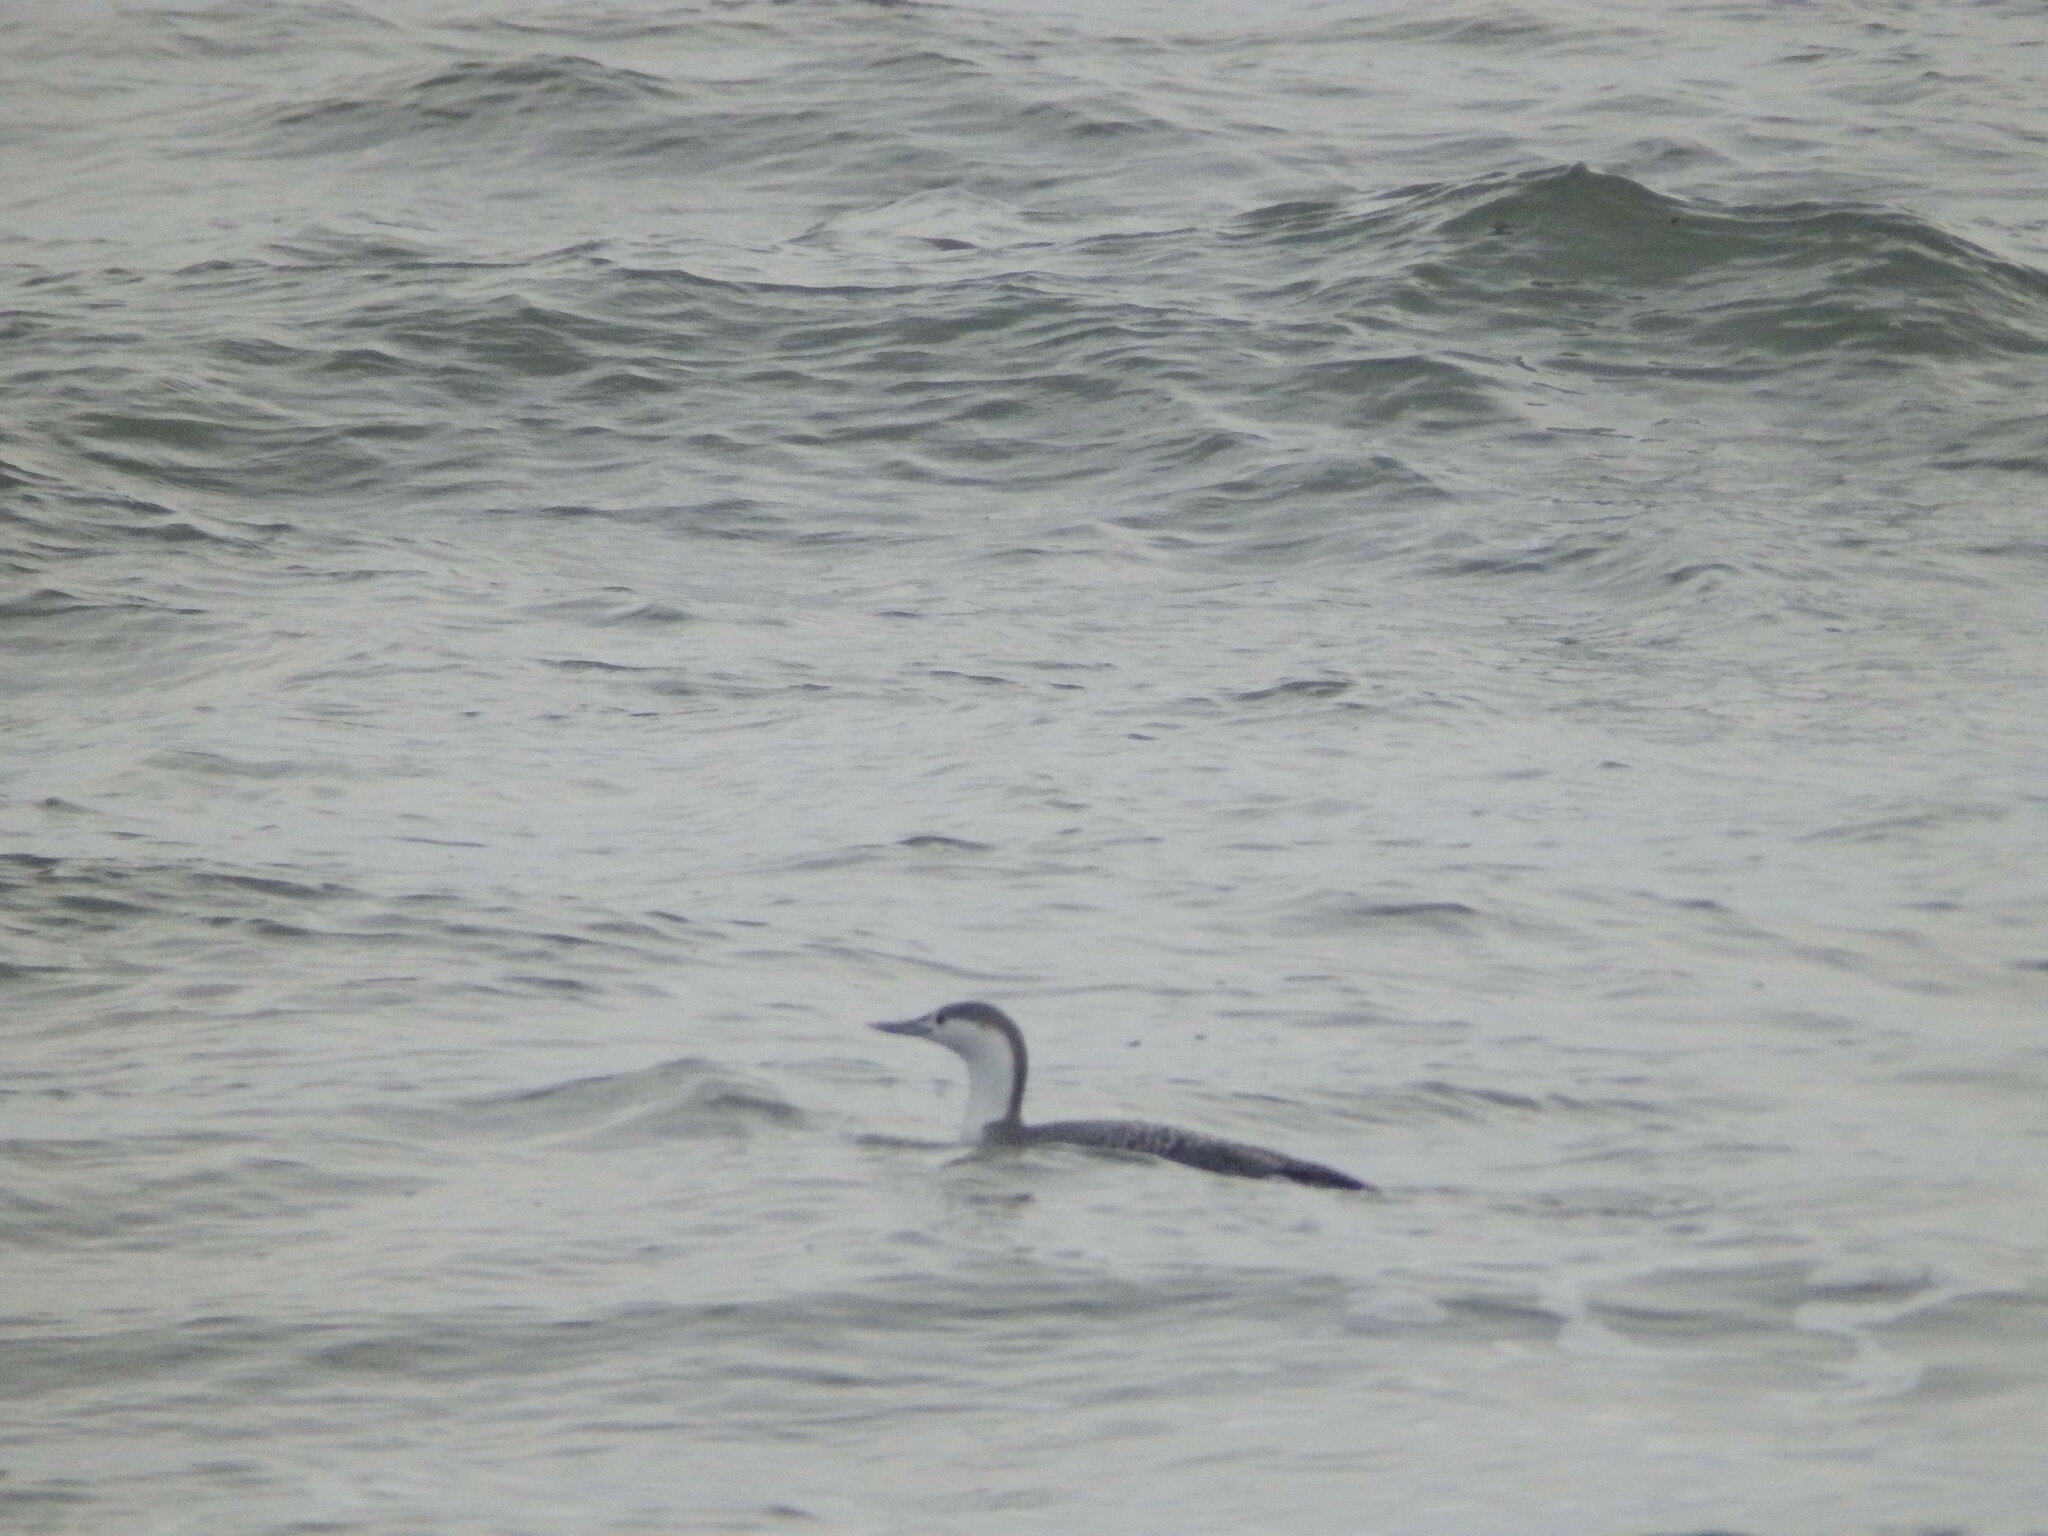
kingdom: Animalia
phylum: Chordata
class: Aves
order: Gaviiformes
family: Gaviidae
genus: Gavia
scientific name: Gavia stellata
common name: Red-throated loon
